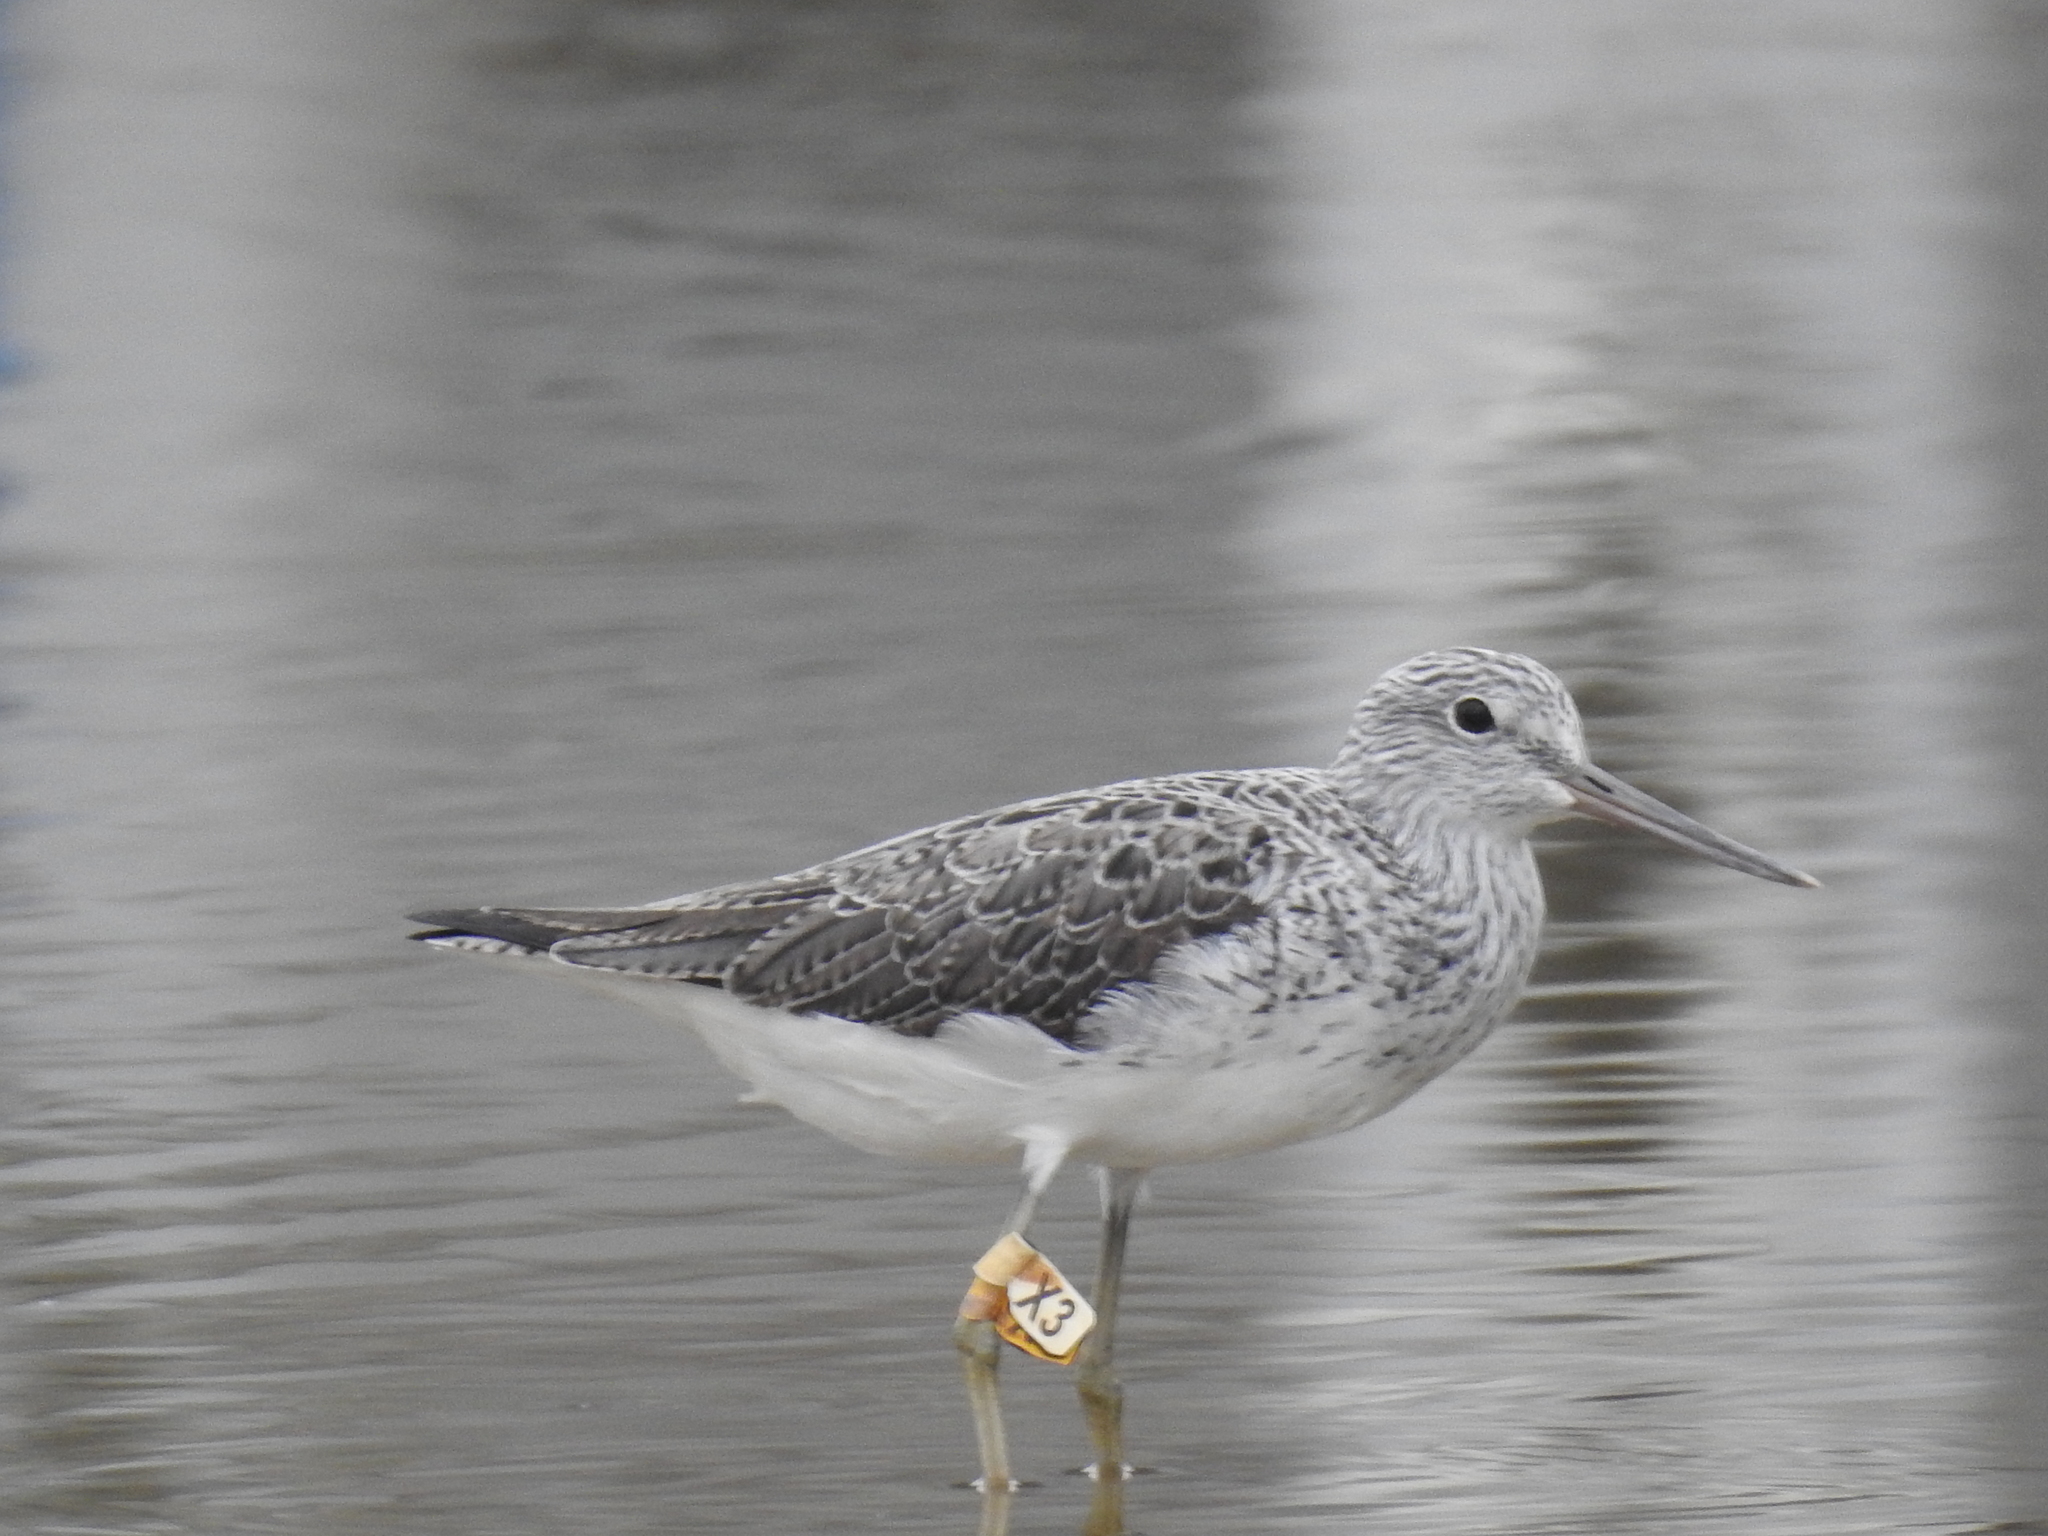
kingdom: Animalia
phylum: Chordata
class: Aves
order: Charadriiformes
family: Scolopacidae
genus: Tringa
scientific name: Tringa nebularia
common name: Common greenshank
